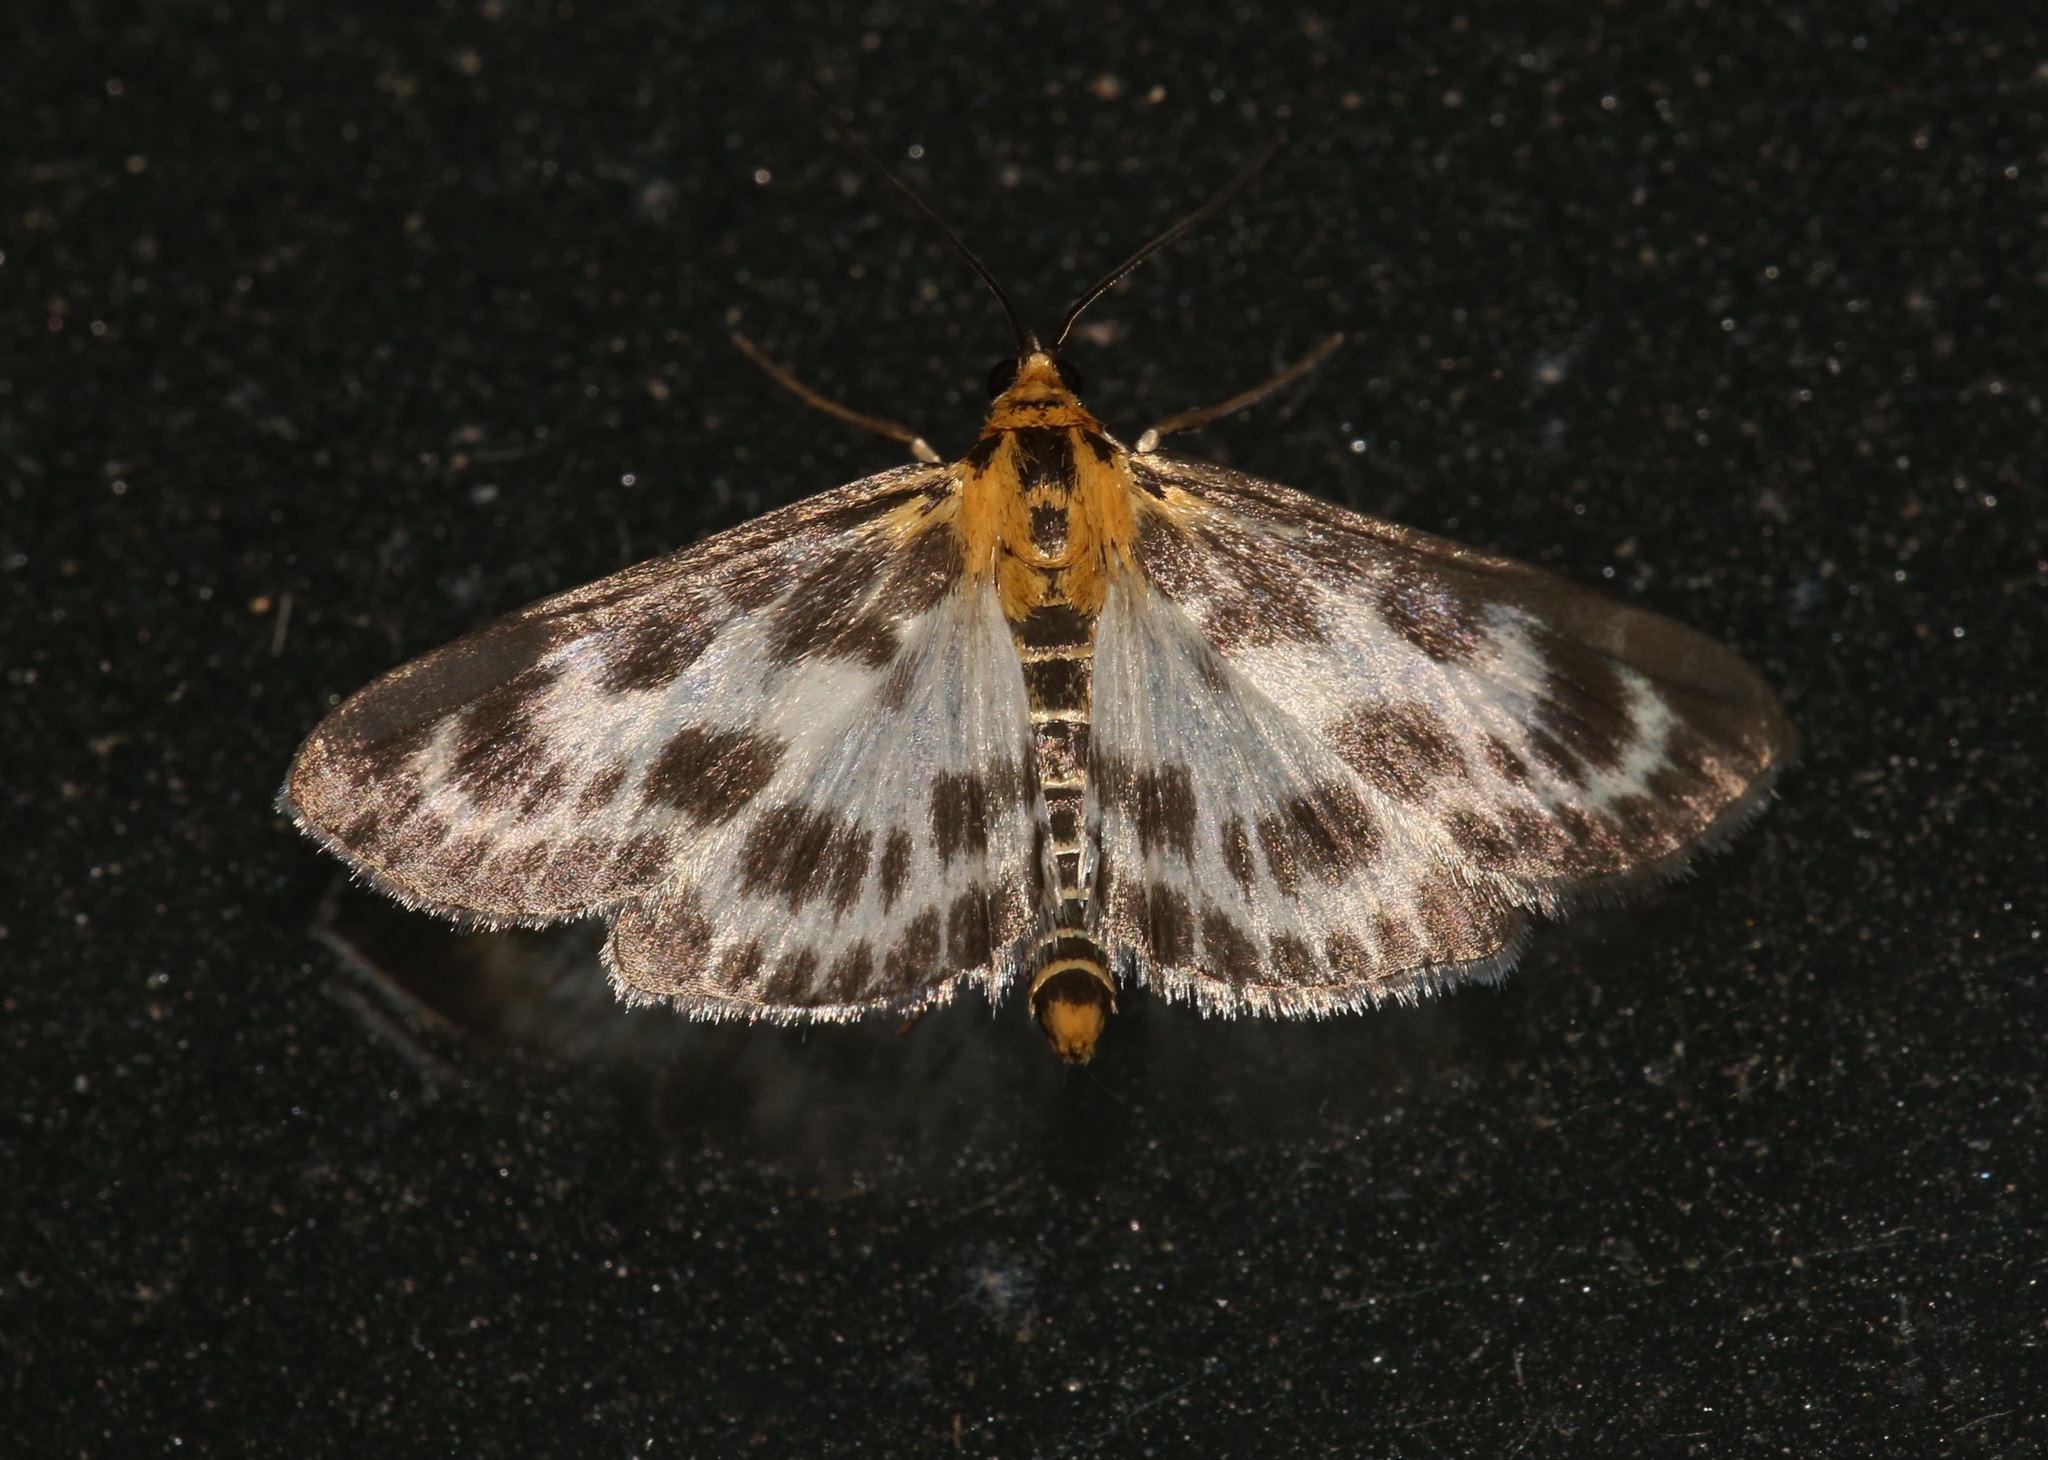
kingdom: Animalia
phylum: Arthropoda
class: Insecta
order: Lepidoptera
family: Crambidae
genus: Anania
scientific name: Anania hortulata
